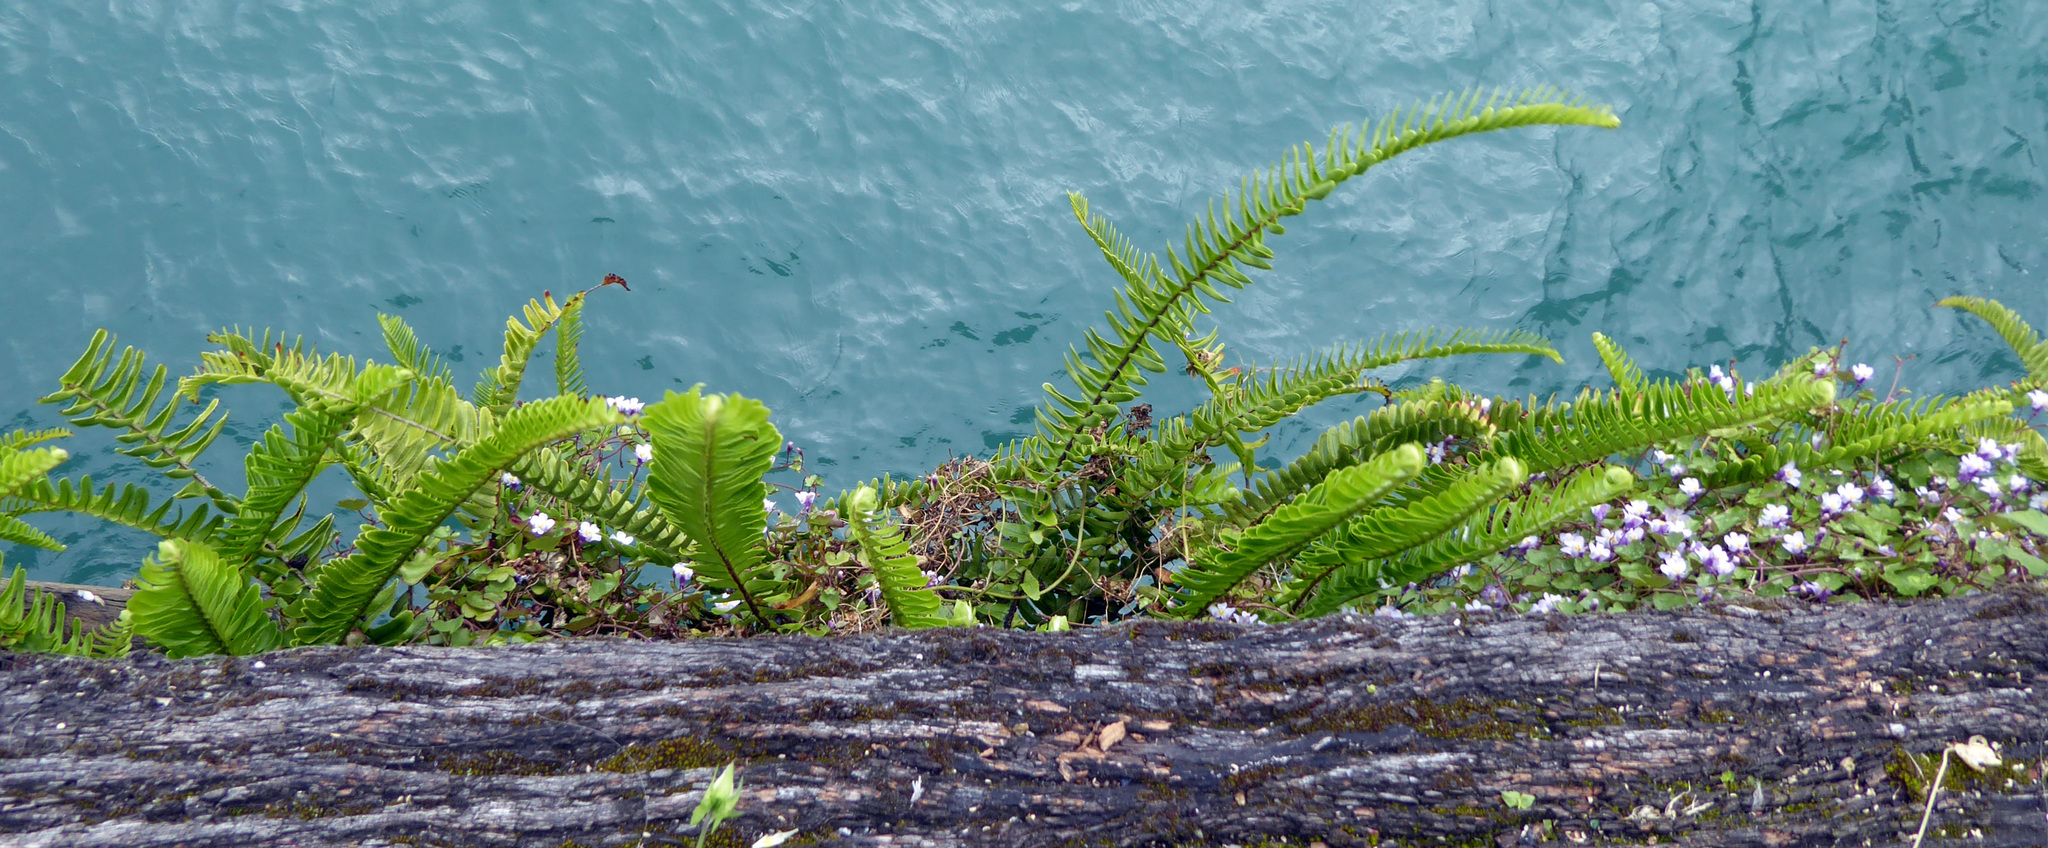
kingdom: Plantae
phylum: Tracheophyta
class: Polypodiopsida
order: Polypodiales
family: Nephrolepidaceae
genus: Nephrolepis
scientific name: Nephrolepis cordifolia
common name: Narrow swordfern
